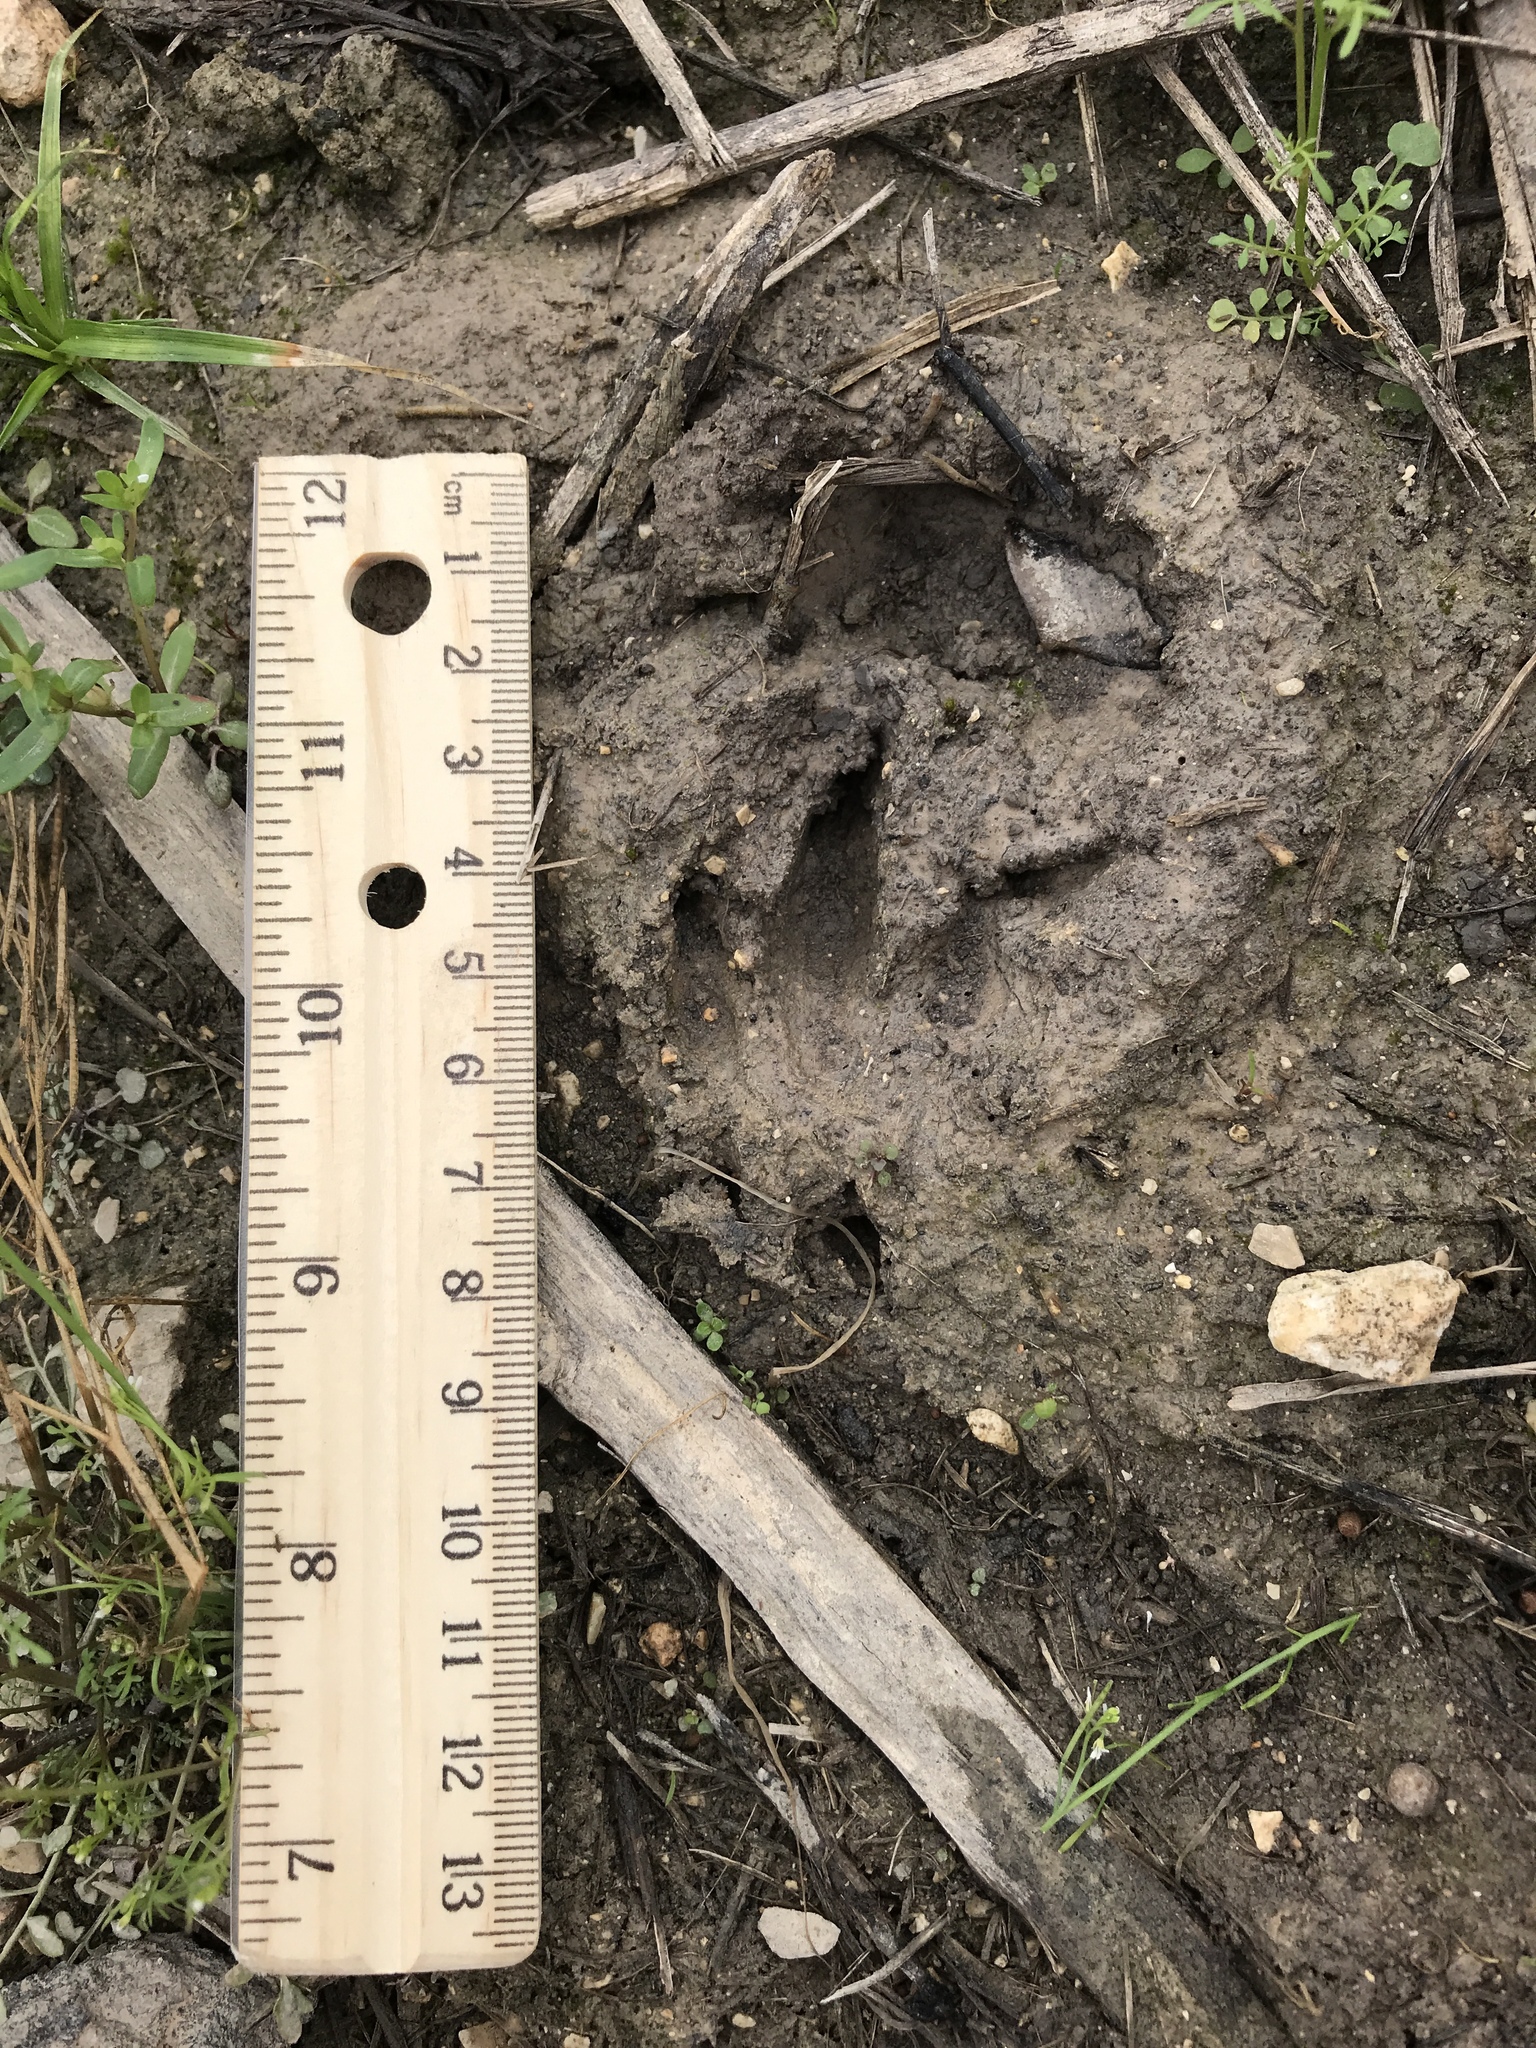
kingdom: Animalia
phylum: Chordata
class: Mammalia
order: Cingulata
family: Dasypodidae
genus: Dasypus
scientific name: Dasypus novemcinctus
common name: Nine-banded armadillo
